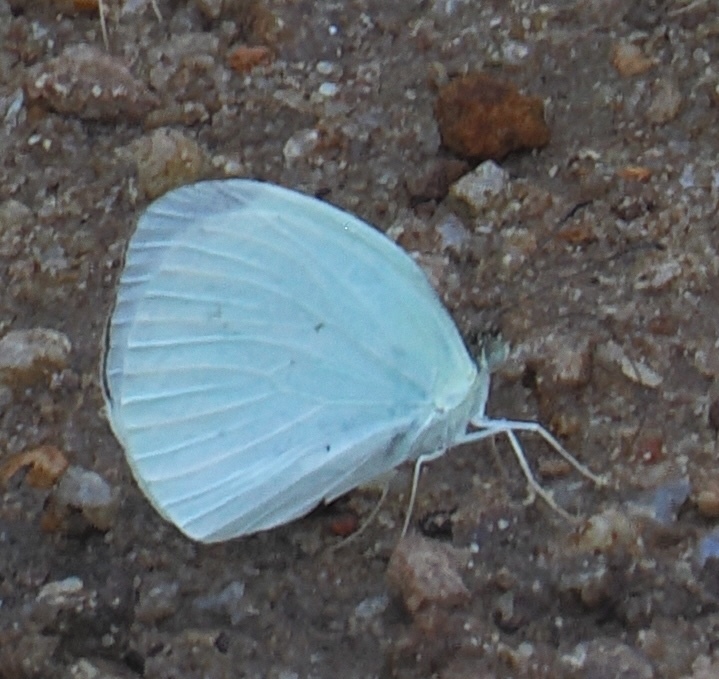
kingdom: Animalia
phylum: Arthropoda
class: Insecta
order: Lepidoptera
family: Pieridae
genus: Abaeis
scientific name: Abaeis albula
